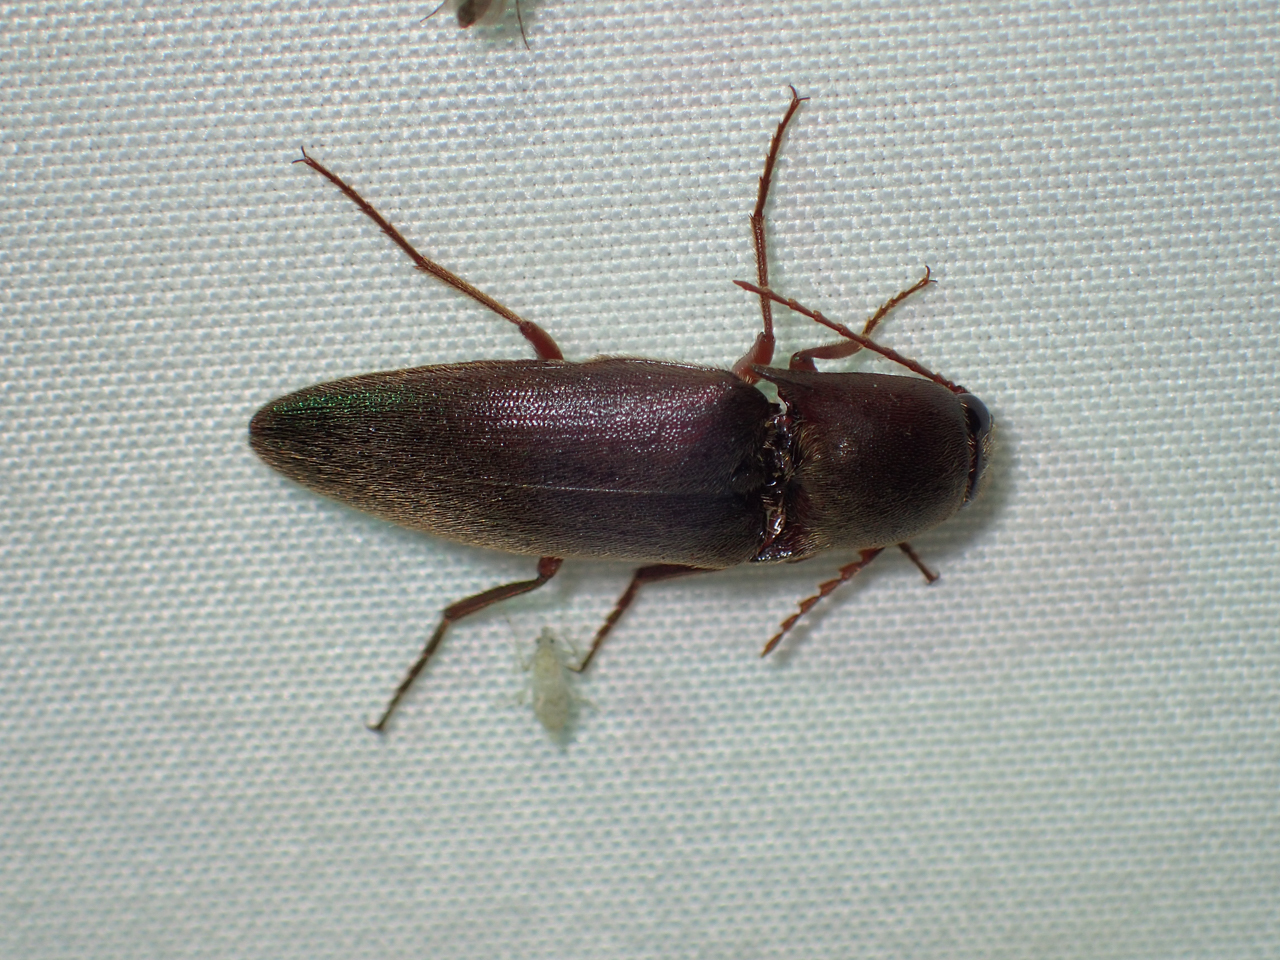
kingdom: Animalia
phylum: Arthropoda
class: Insecta
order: Coleoptera
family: Elateridae
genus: Diplostethus
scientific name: Diplostethus
